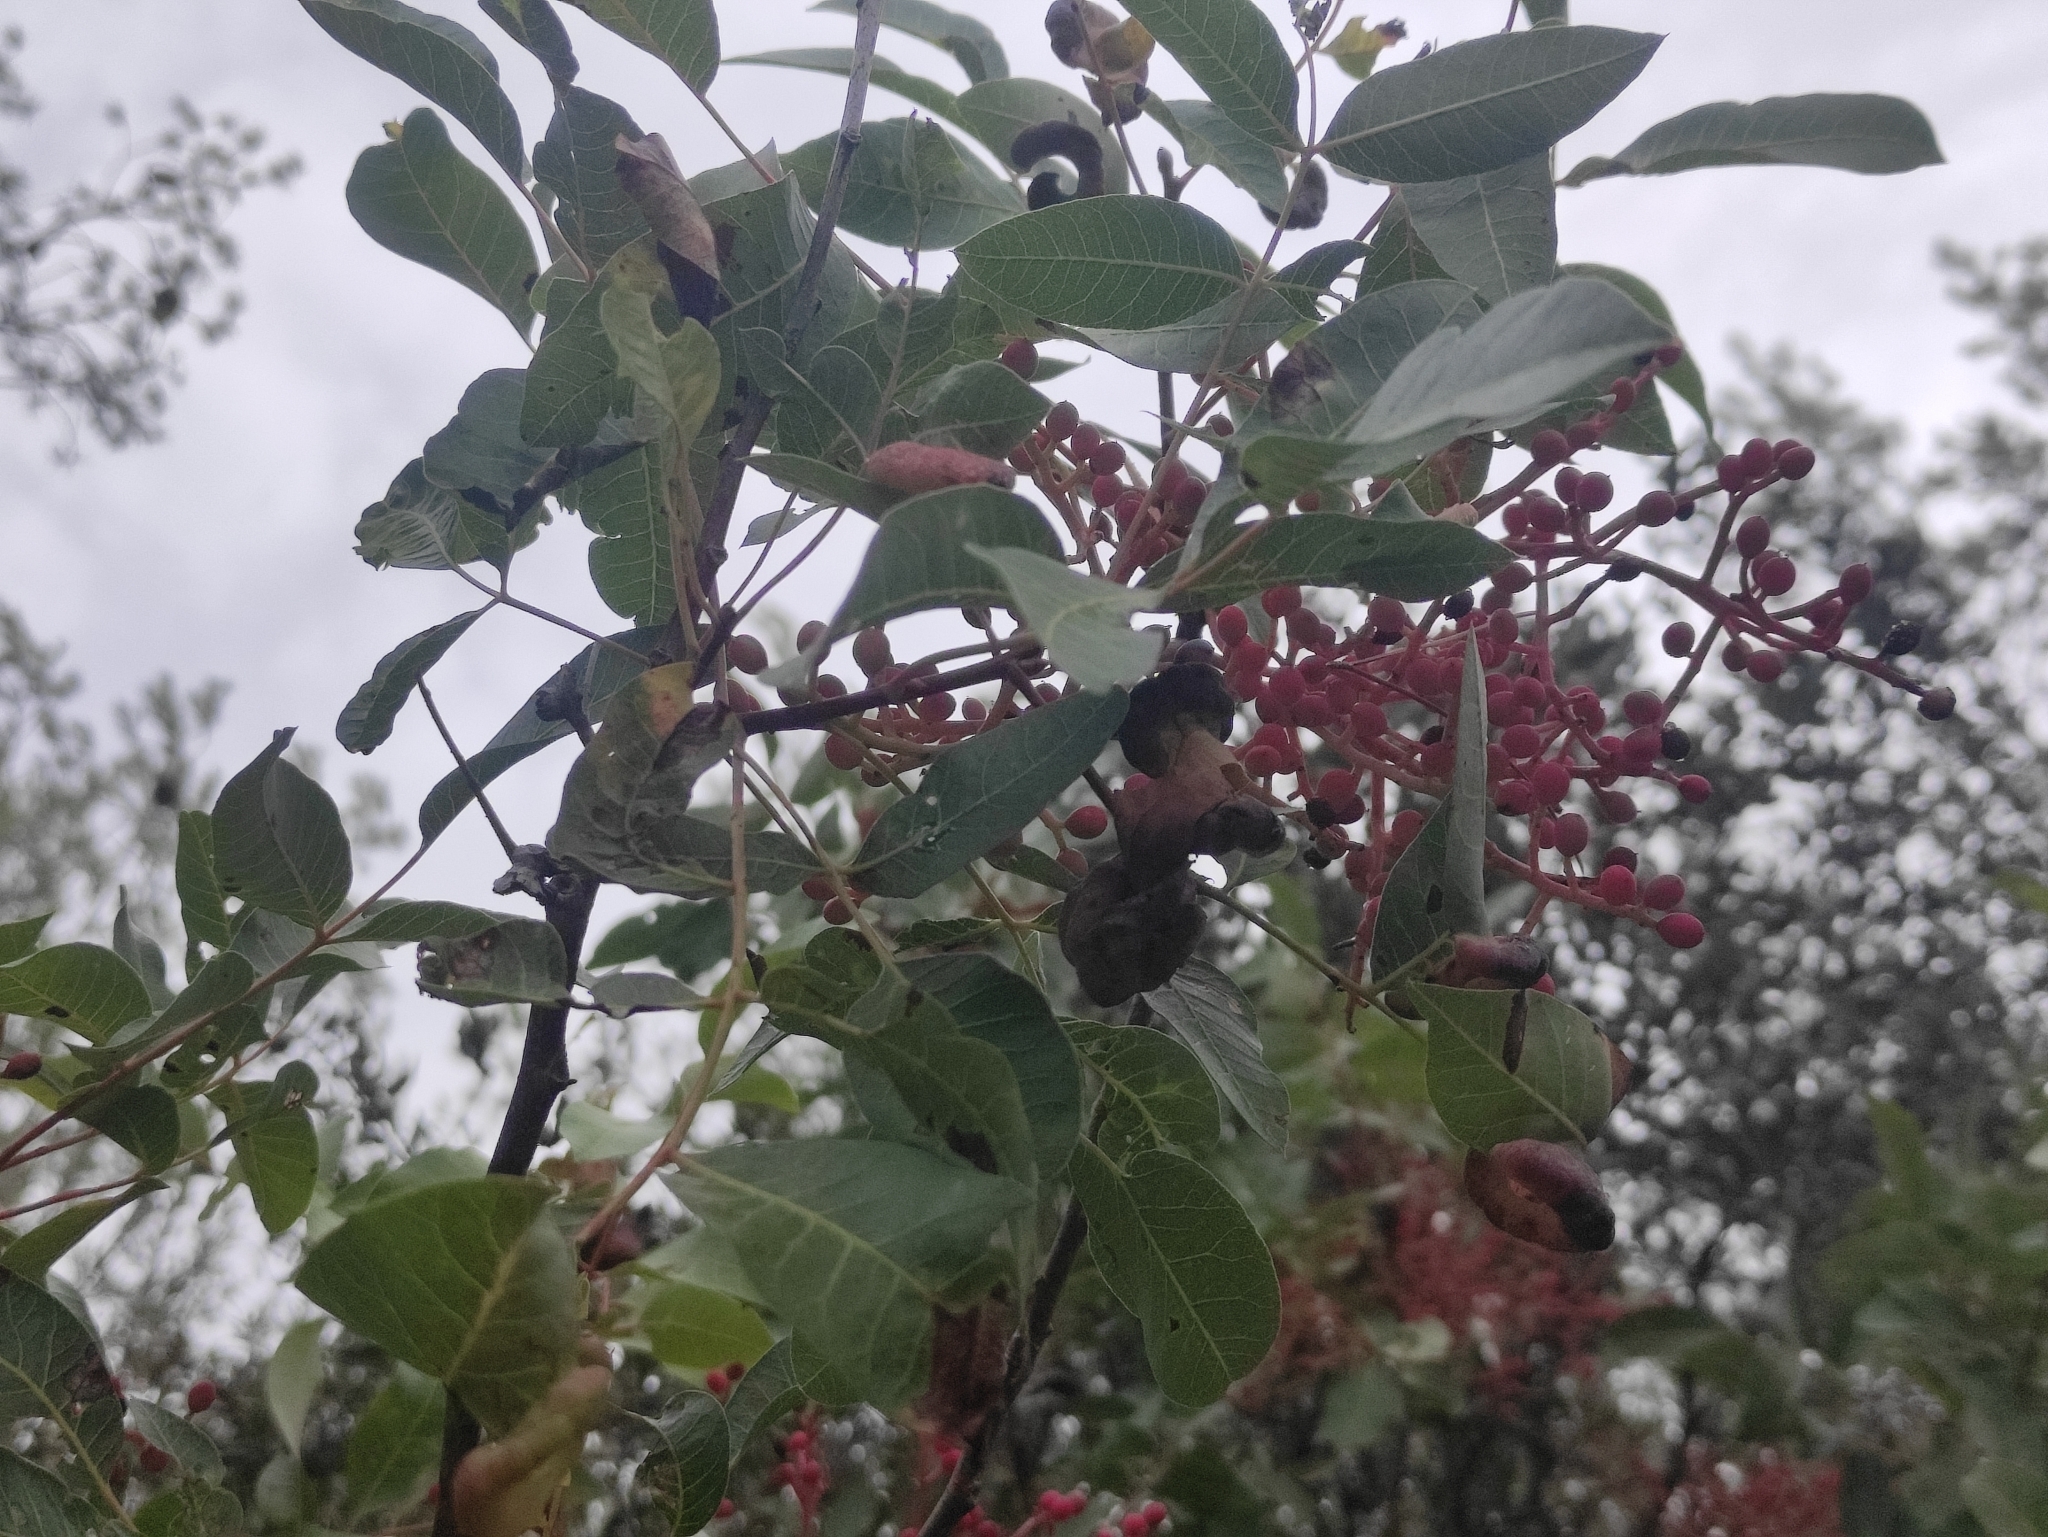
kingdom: Plantae
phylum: Tracheophyta
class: Magnoliopsida
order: Sapindales
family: Anacardiaceae
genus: Pistacia
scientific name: Pistacia terebinthus
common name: Terebinth
